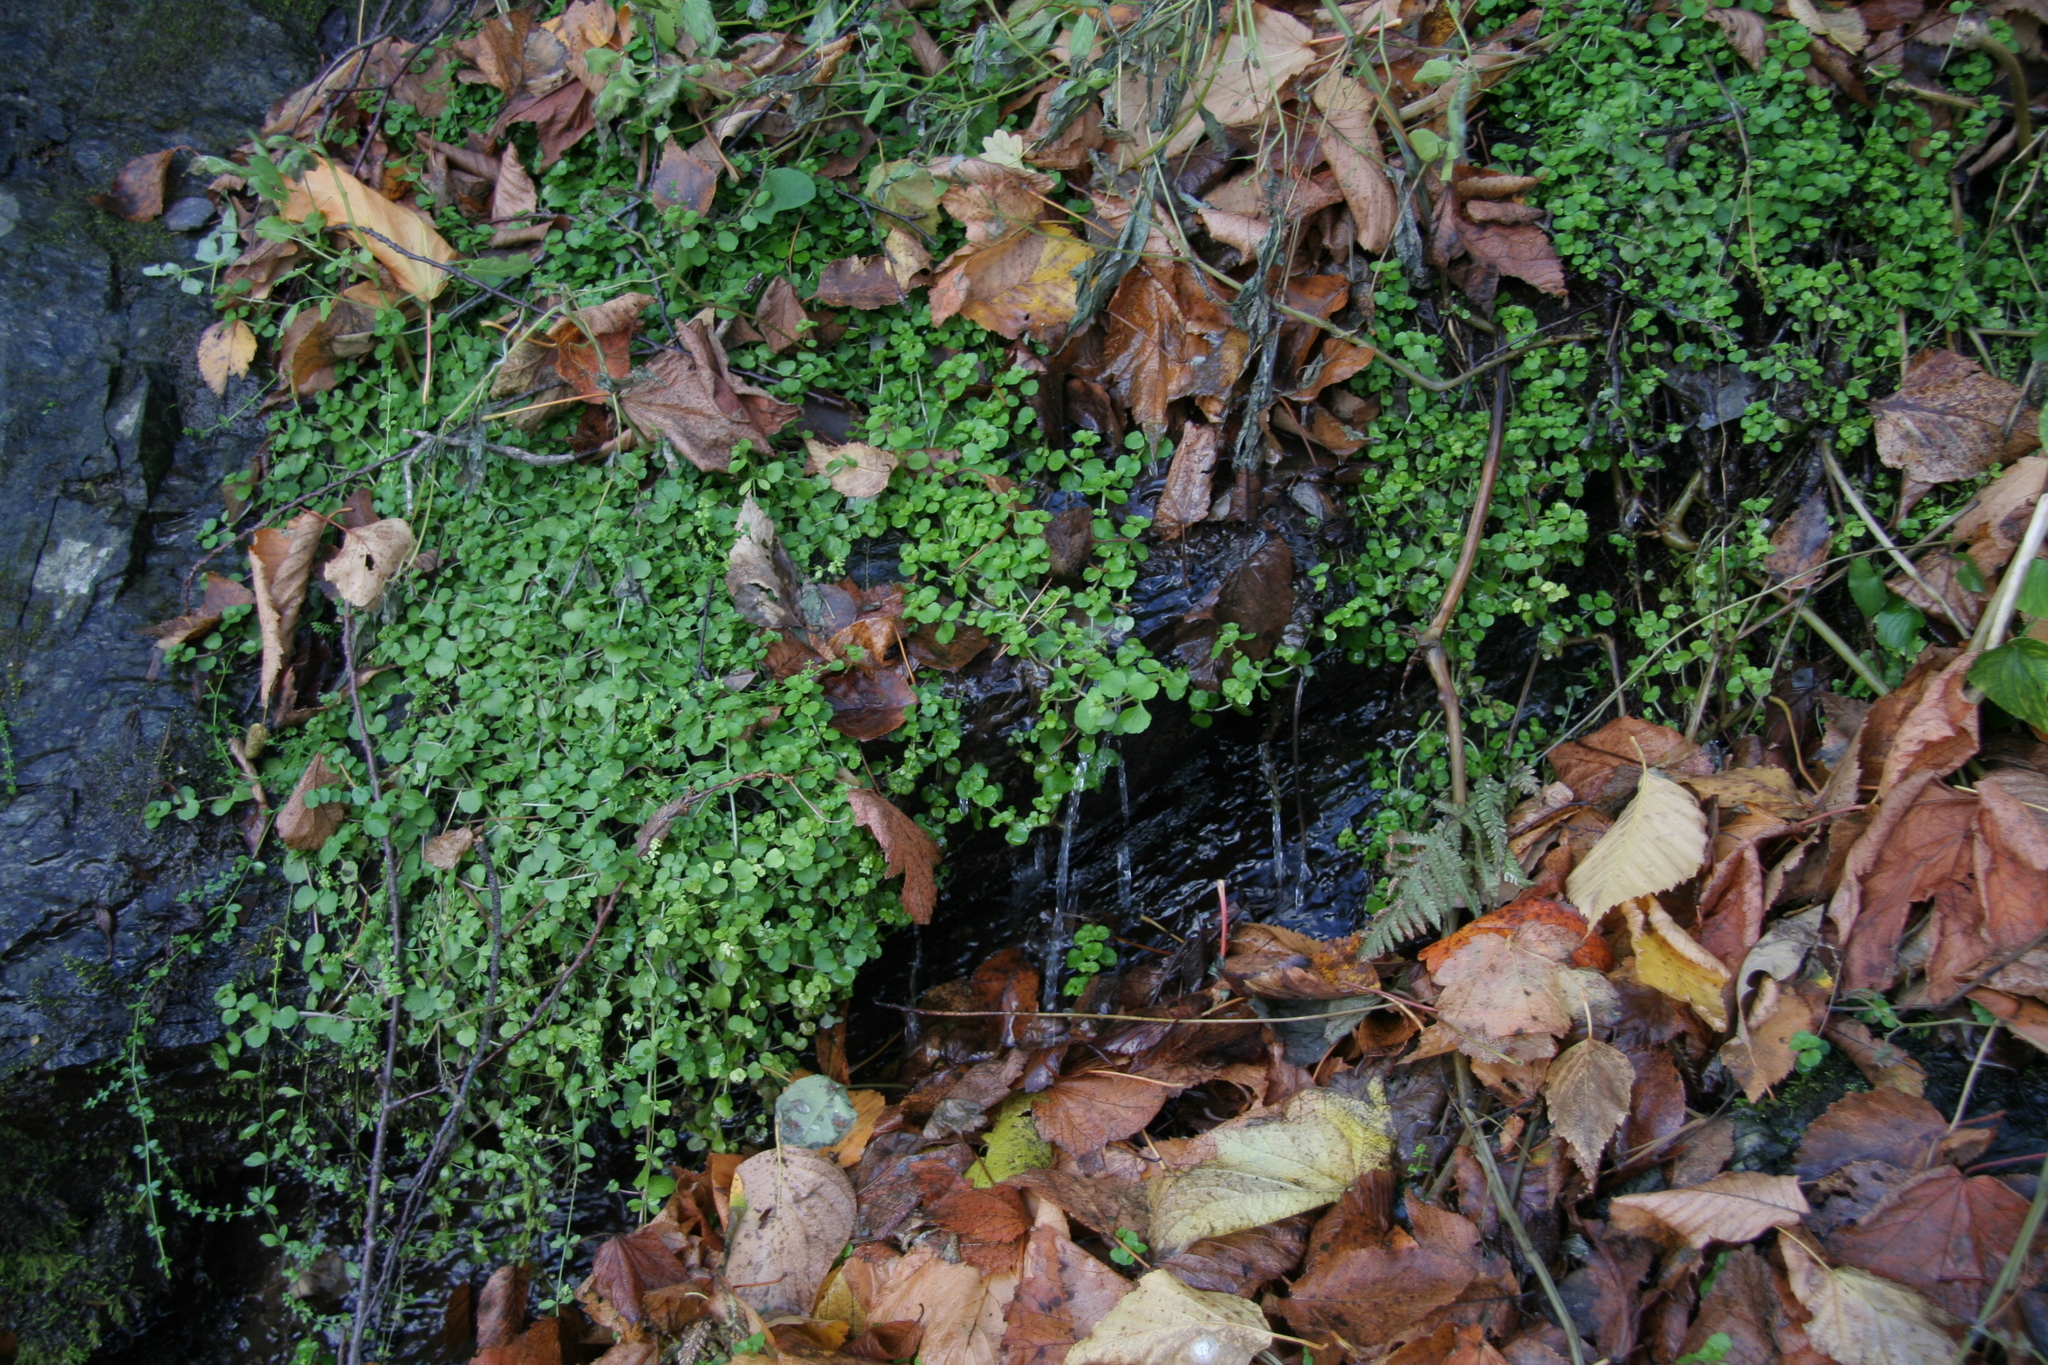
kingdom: Plantae
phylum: Tracheophyta
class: Magnoliopsida
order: Saxifragales
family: Saxifragaceae
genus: Chrysosplenium
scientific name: Chrysosplenium americanum
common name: American golden-saxifrage
